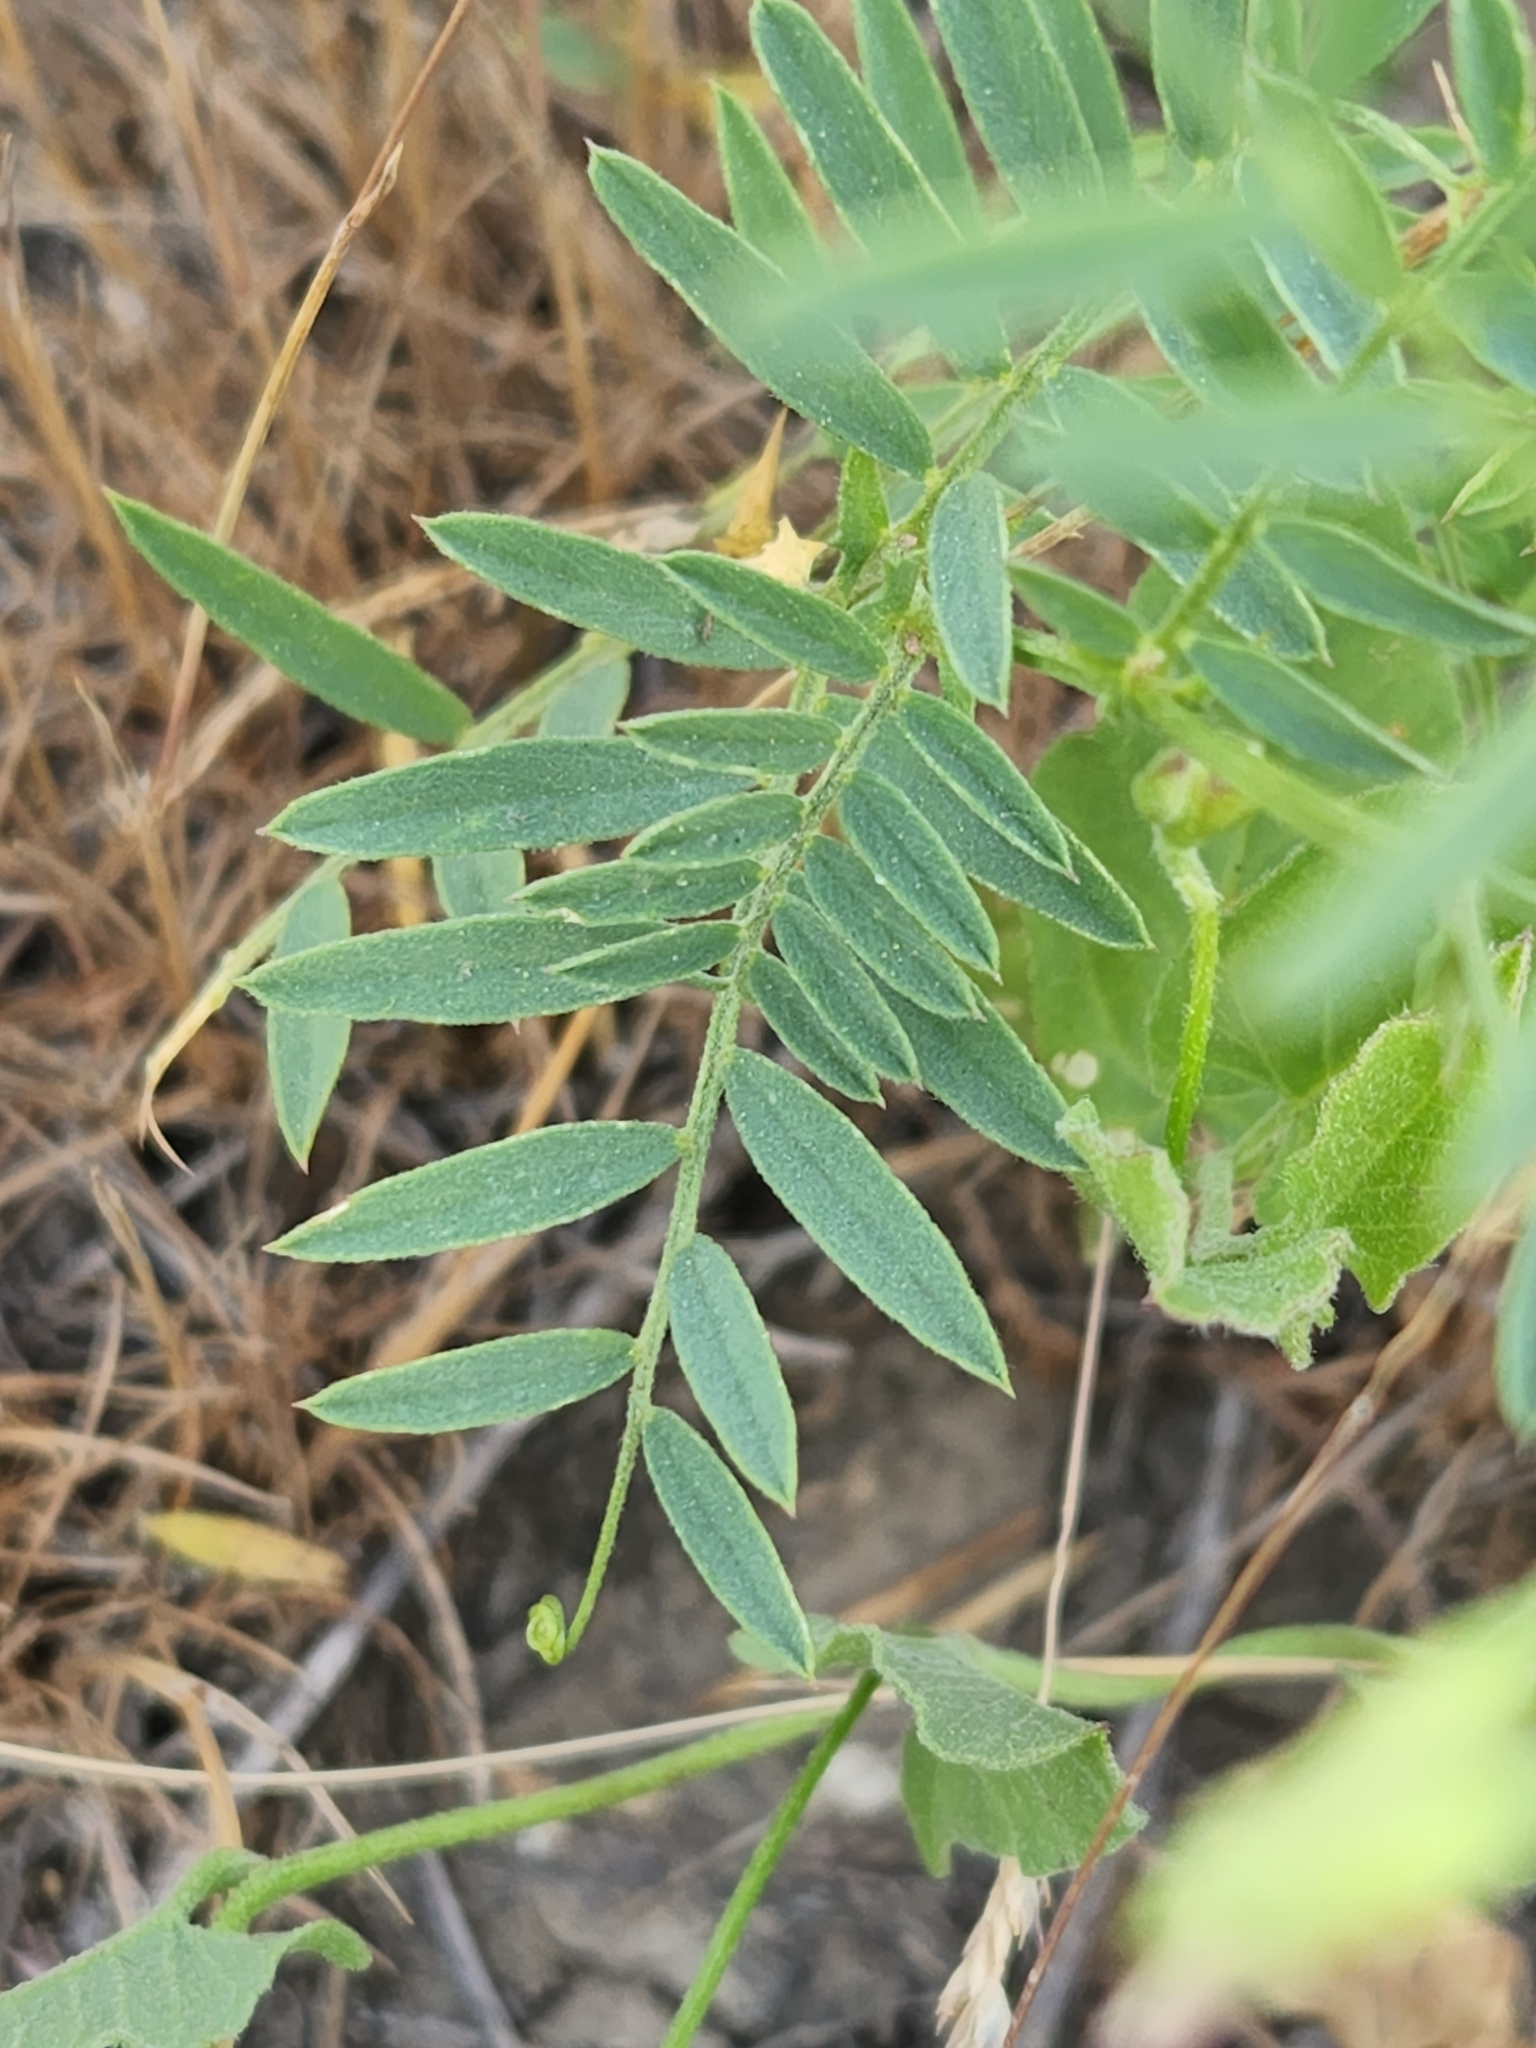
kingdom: Plantae
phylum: Tracheophyta
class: Magnoliopsida
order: Fabales
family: Fabaceae
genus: Vicia
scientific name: Vicia americana
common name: American vetch
